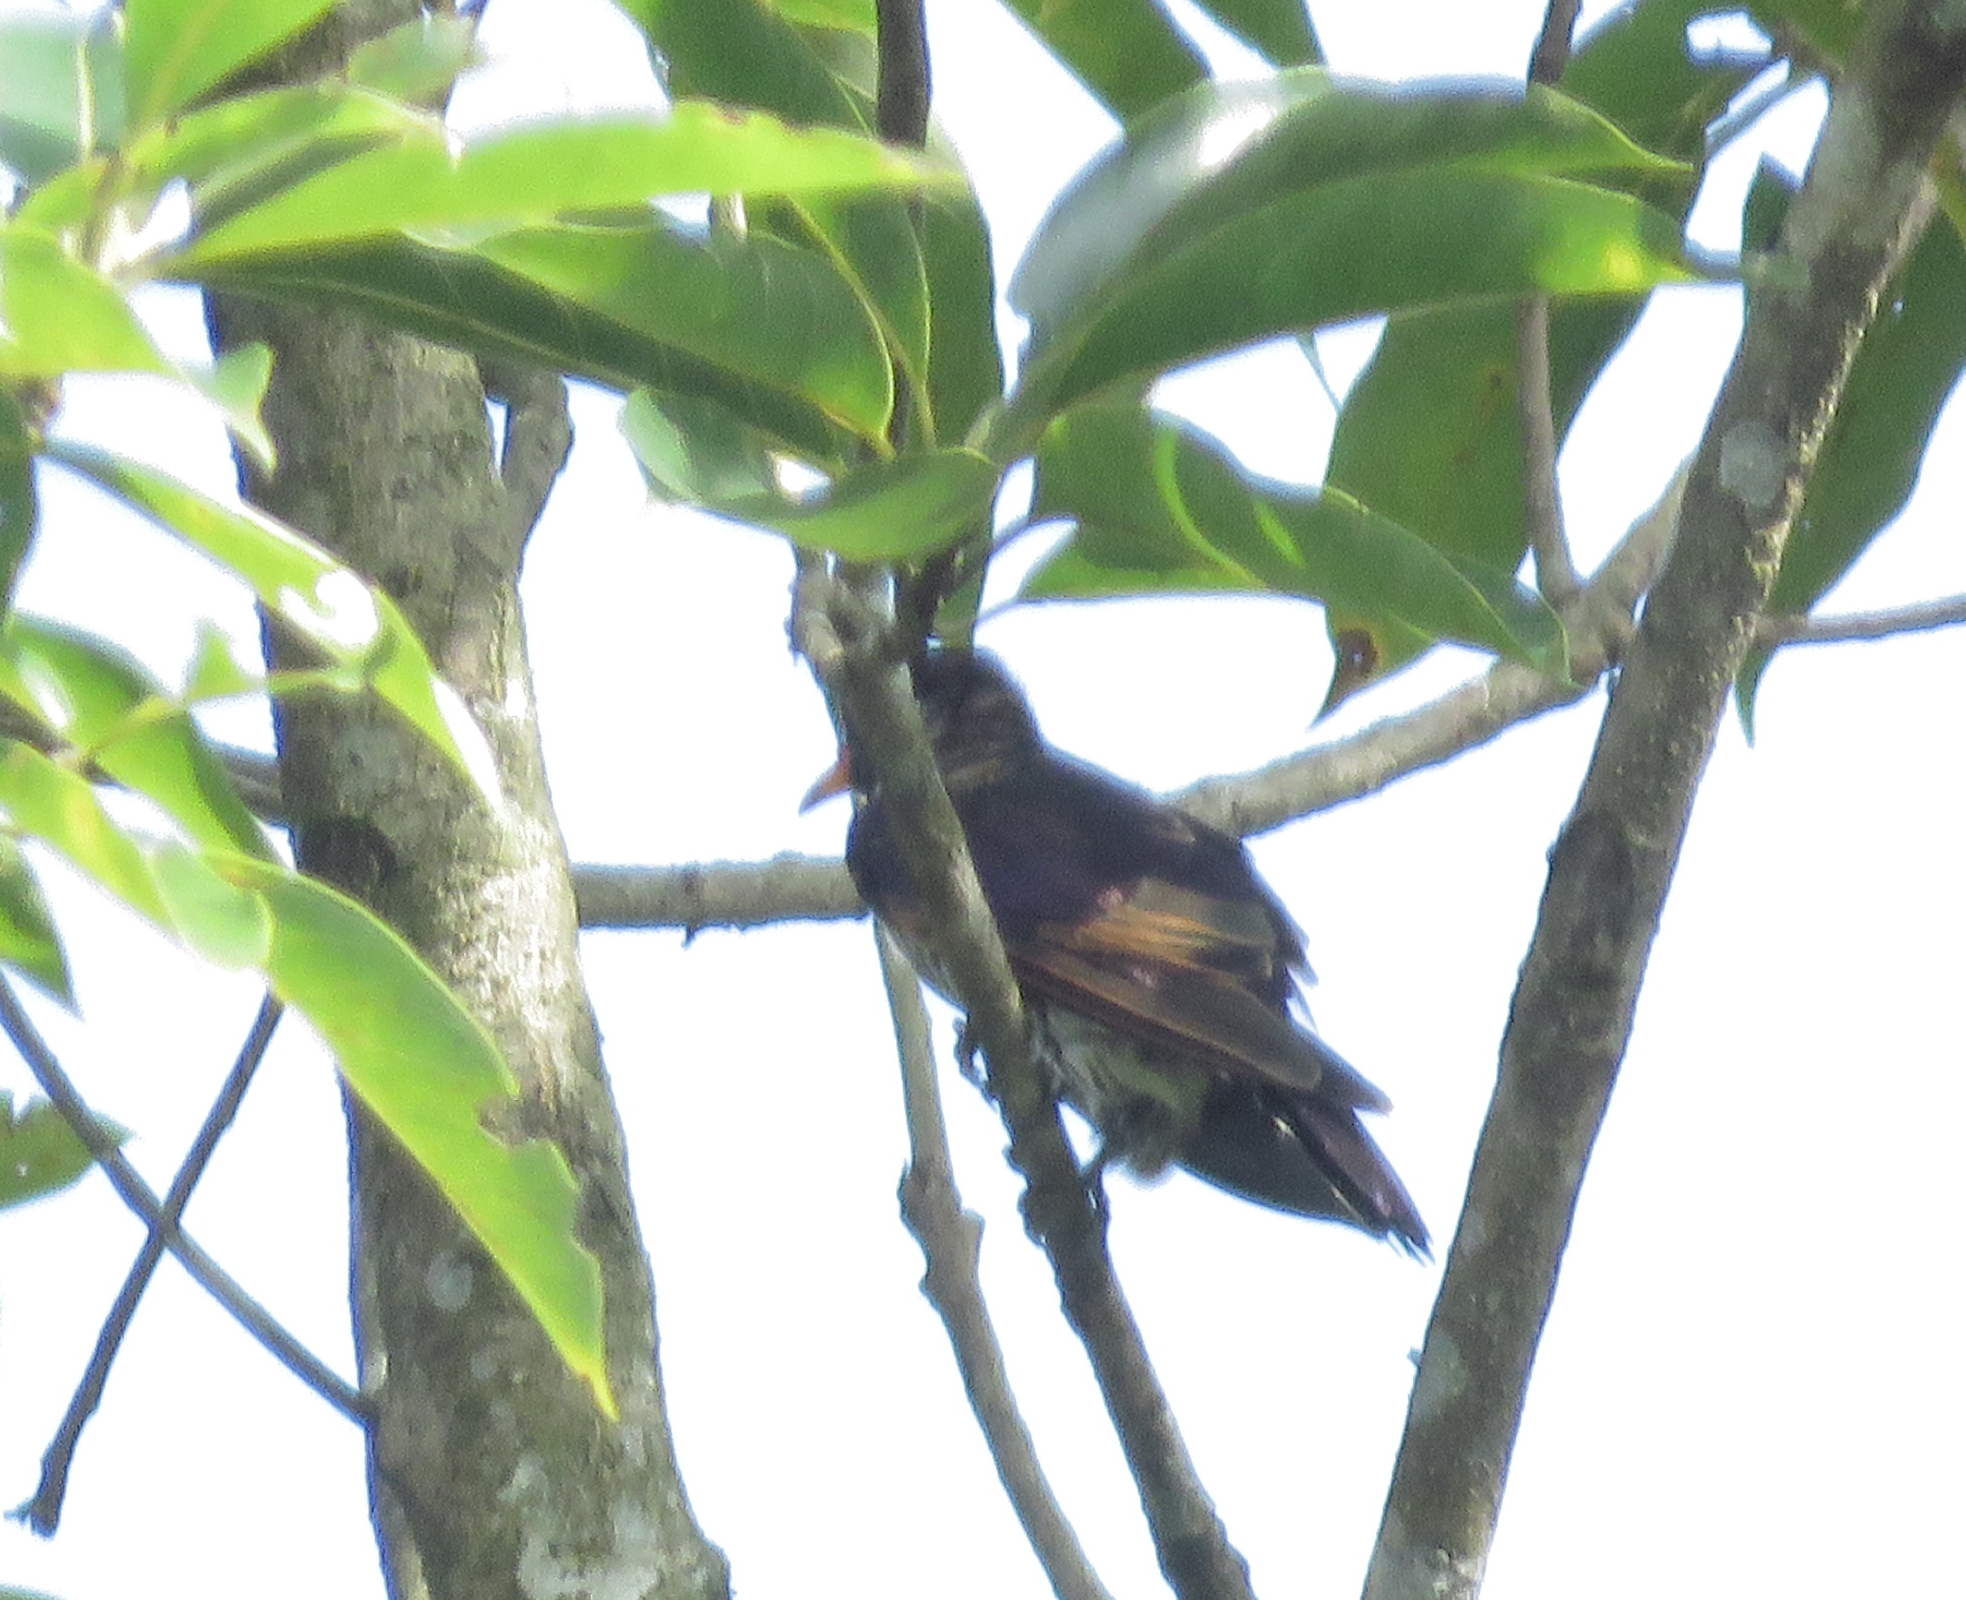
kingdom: Animalia
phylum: Chordata
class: Aves
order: Cuculiformes
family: Cuculidae
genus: Chrysococcyx
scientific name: Chrysococcyx xanthorhynchus
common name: Violet cuckoo
